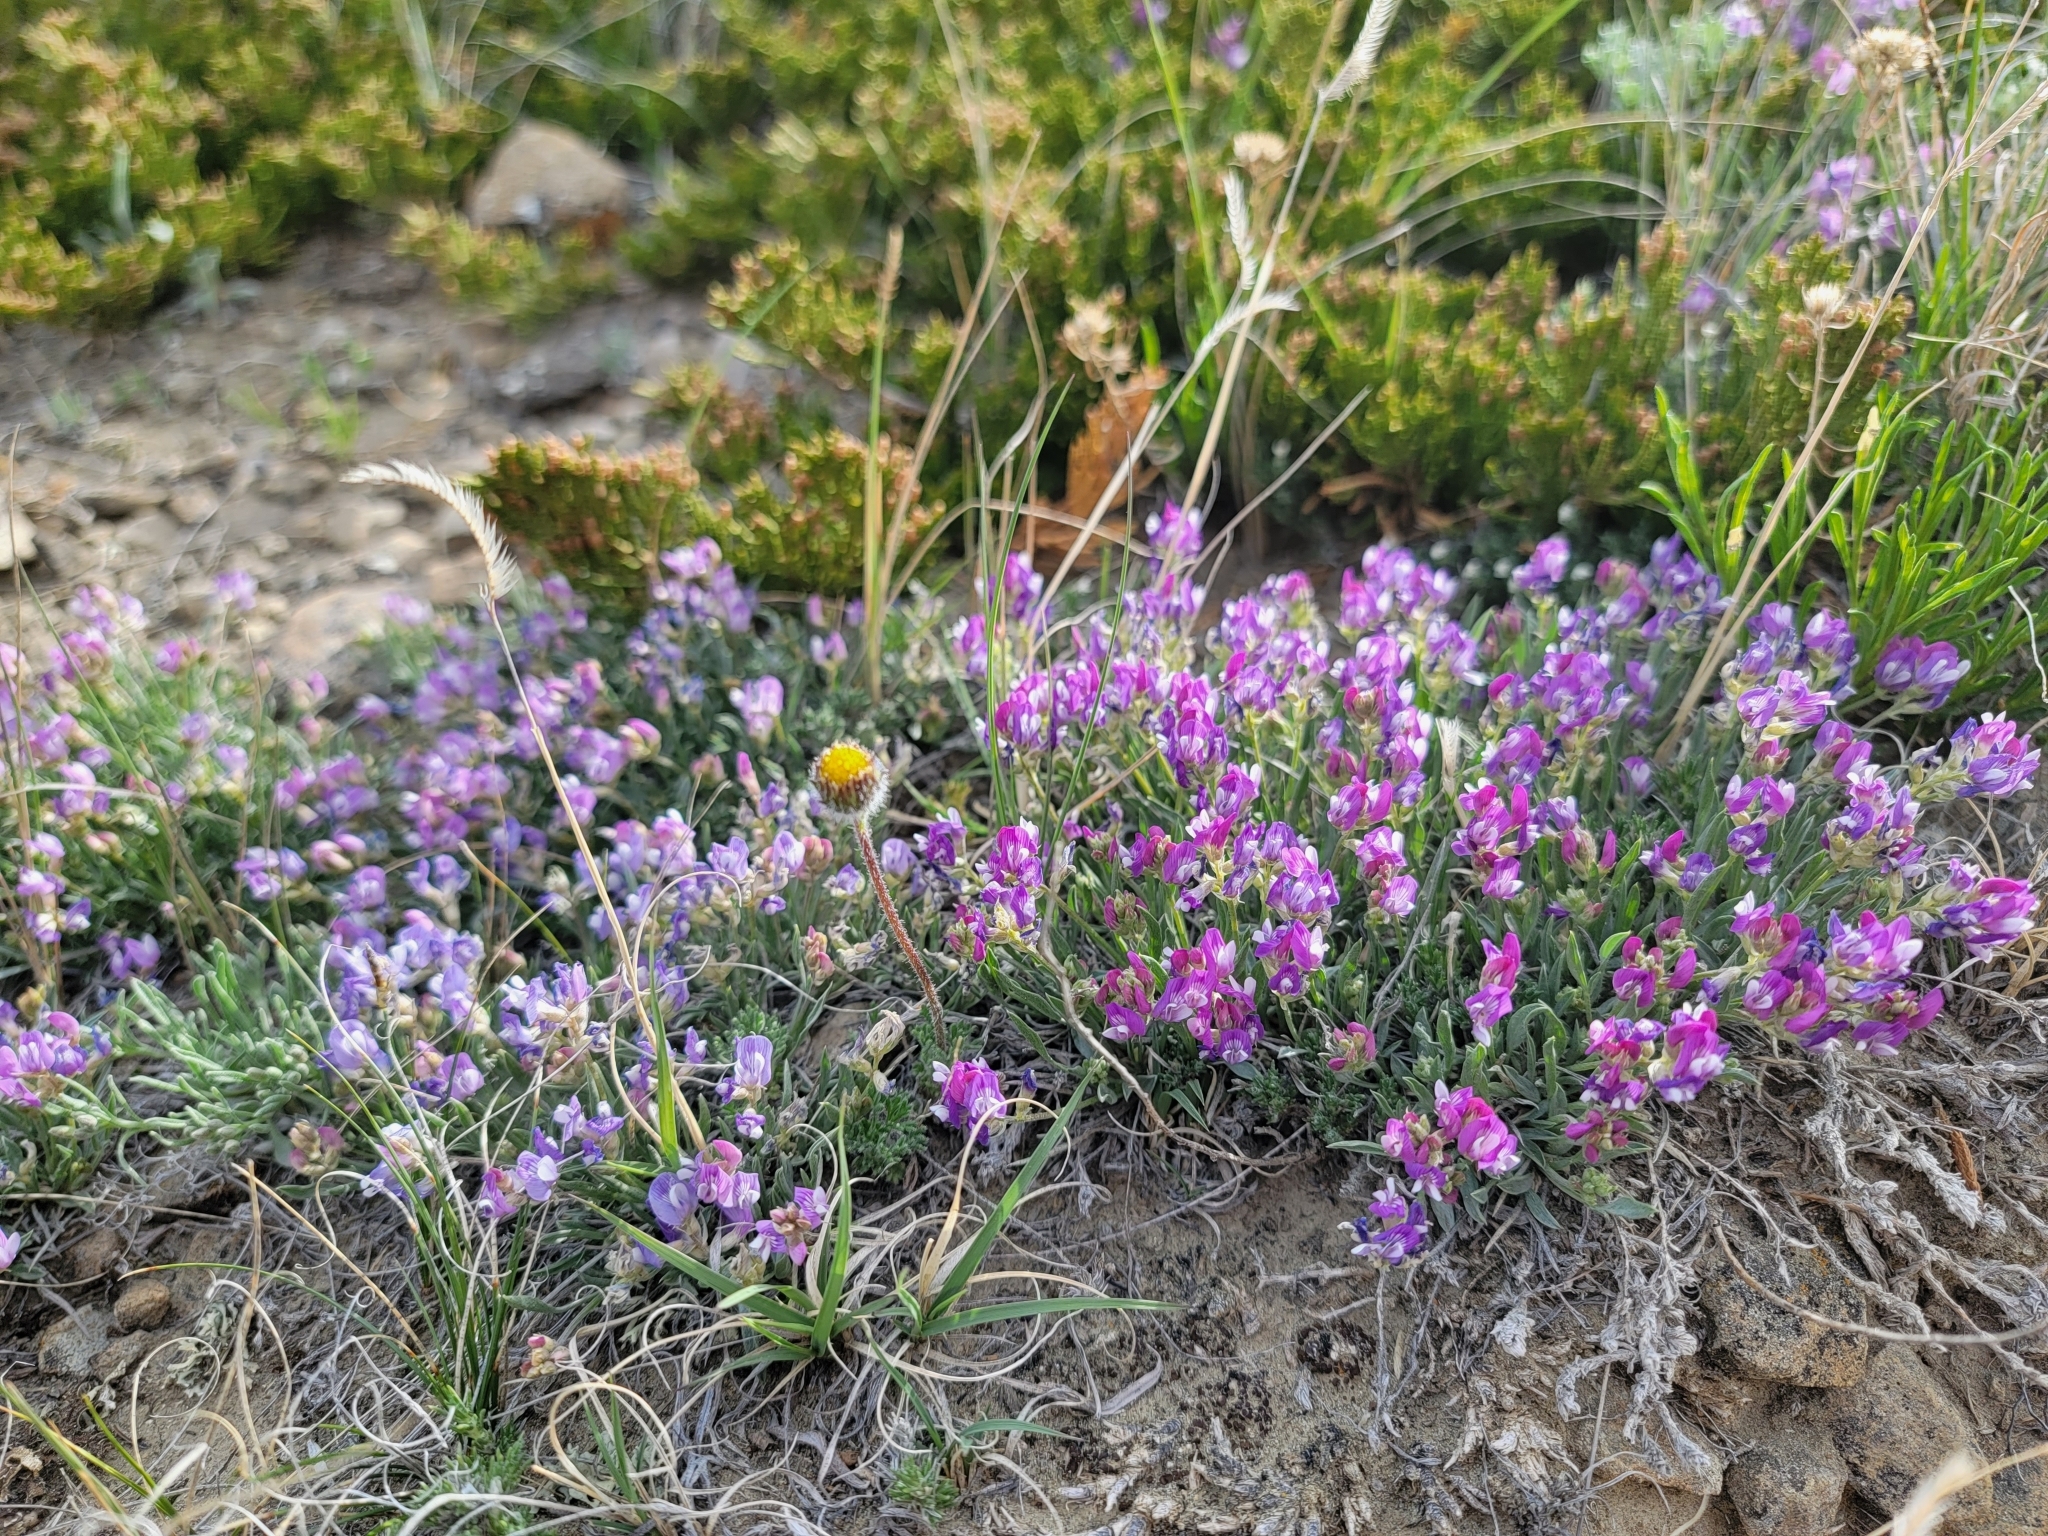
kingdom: Plantae
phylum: Tracheophyta
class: Magnoliopsida
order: Fabales
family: Fabaceae
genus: Astragalus
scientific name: Astragalus spatulatus
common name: Draba milk-vetch
